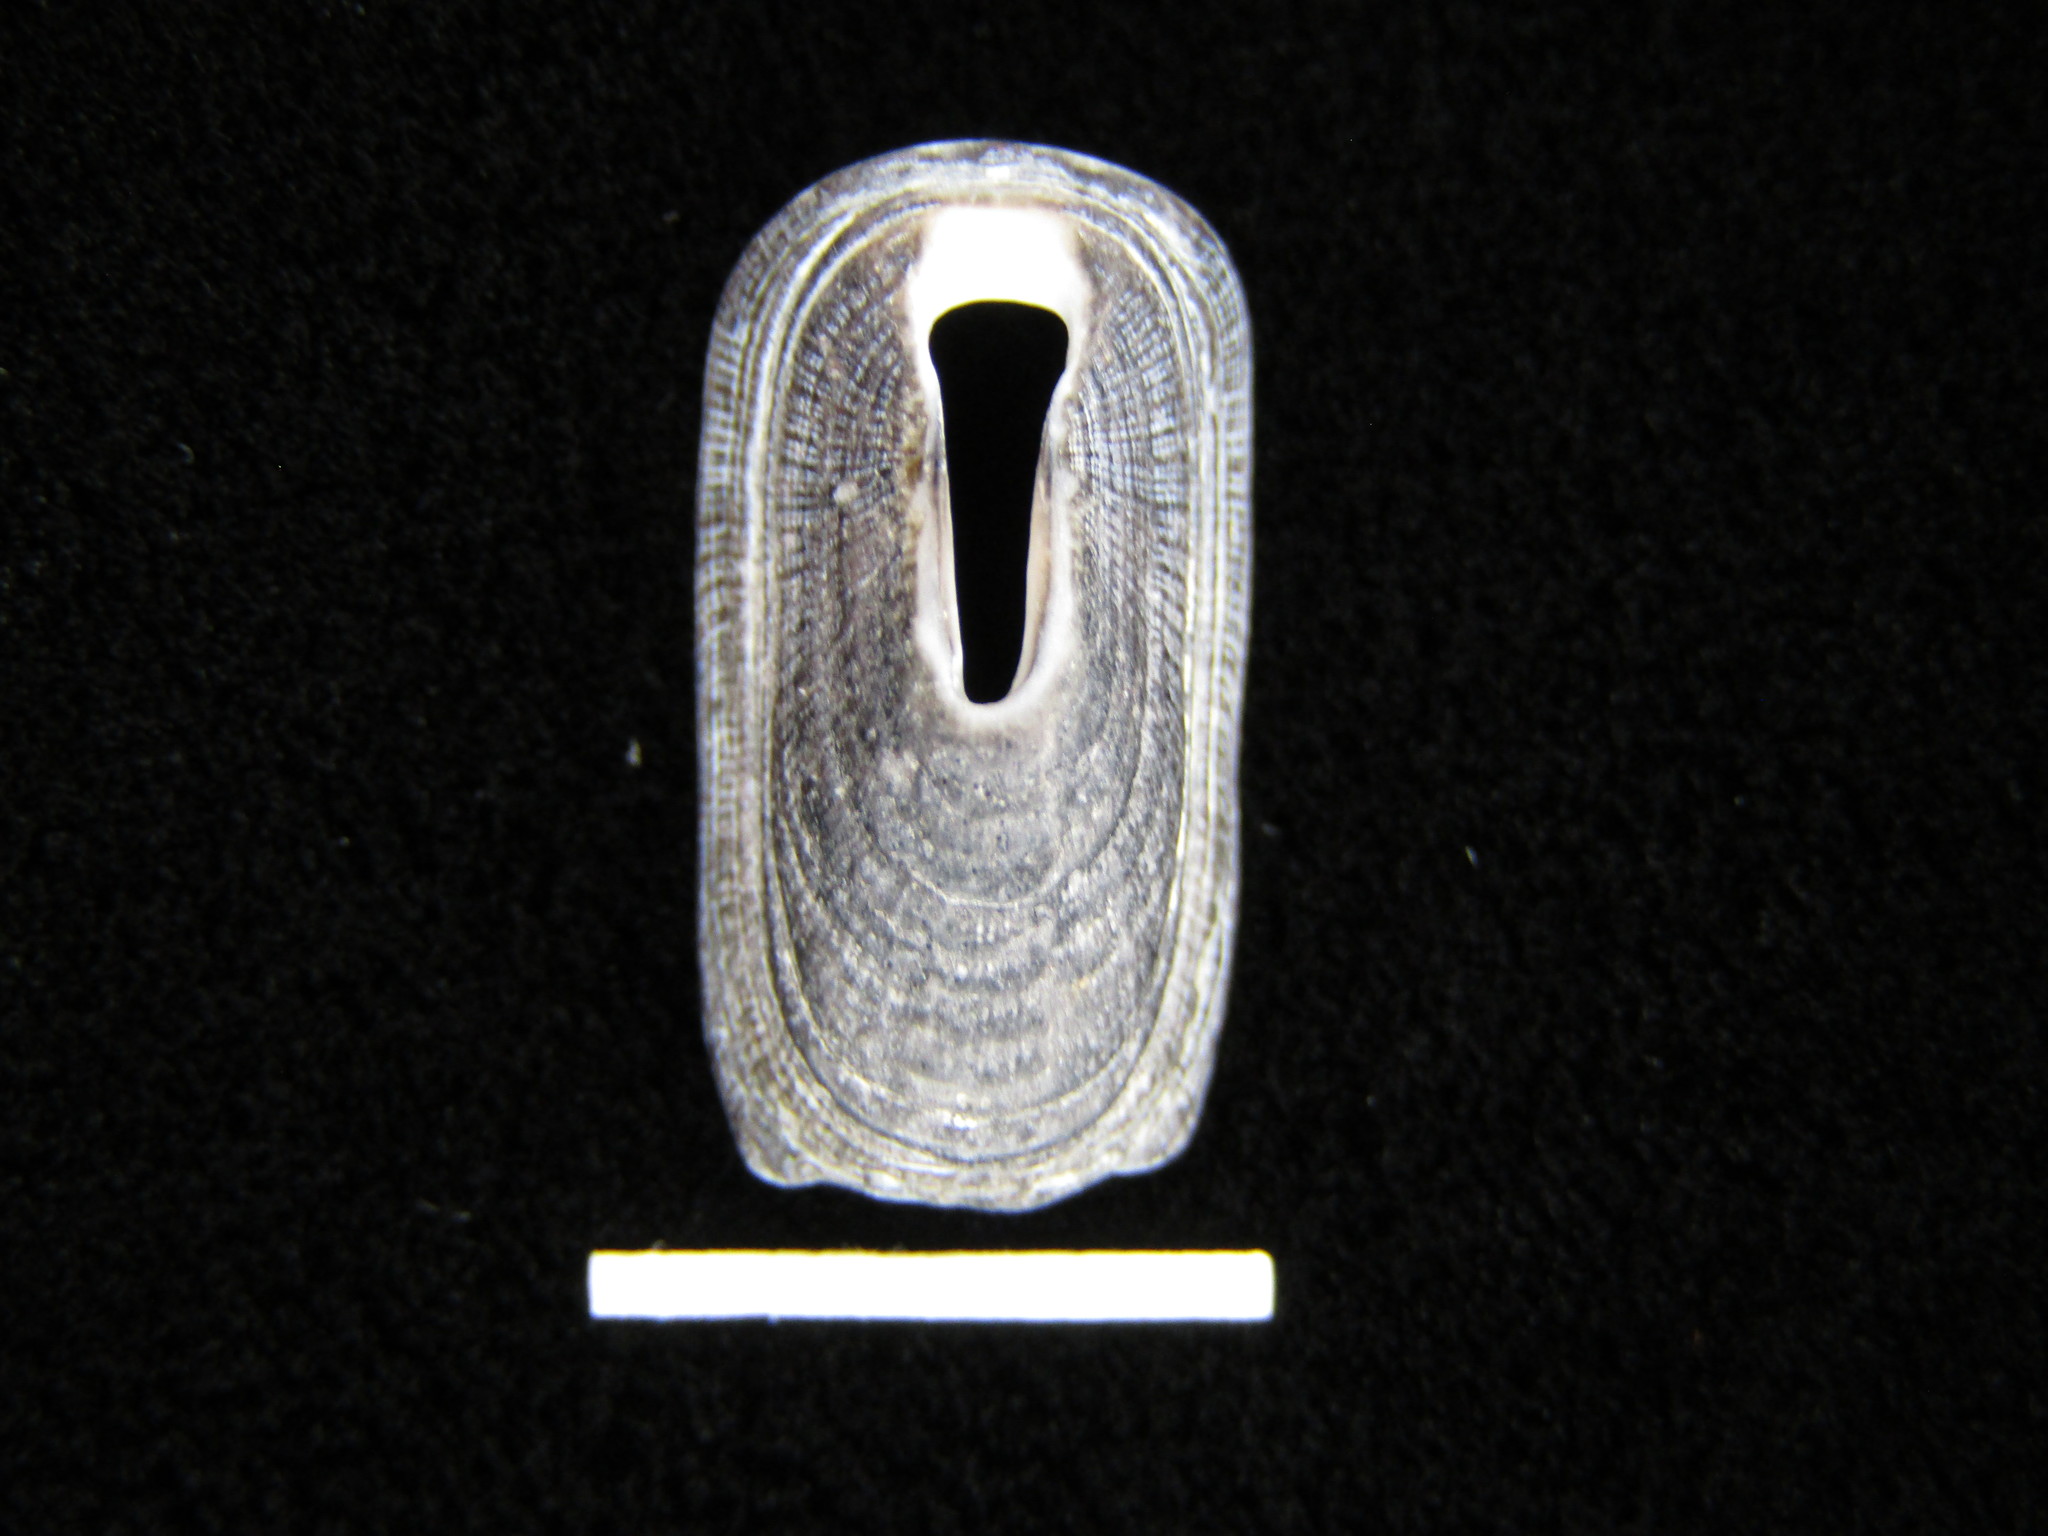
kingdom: Animalia
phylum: Mollusca
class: Gastropoda
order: Lepetellida
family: Fissurellidae
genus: Macroschisma
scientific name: Macroschisma sinense
